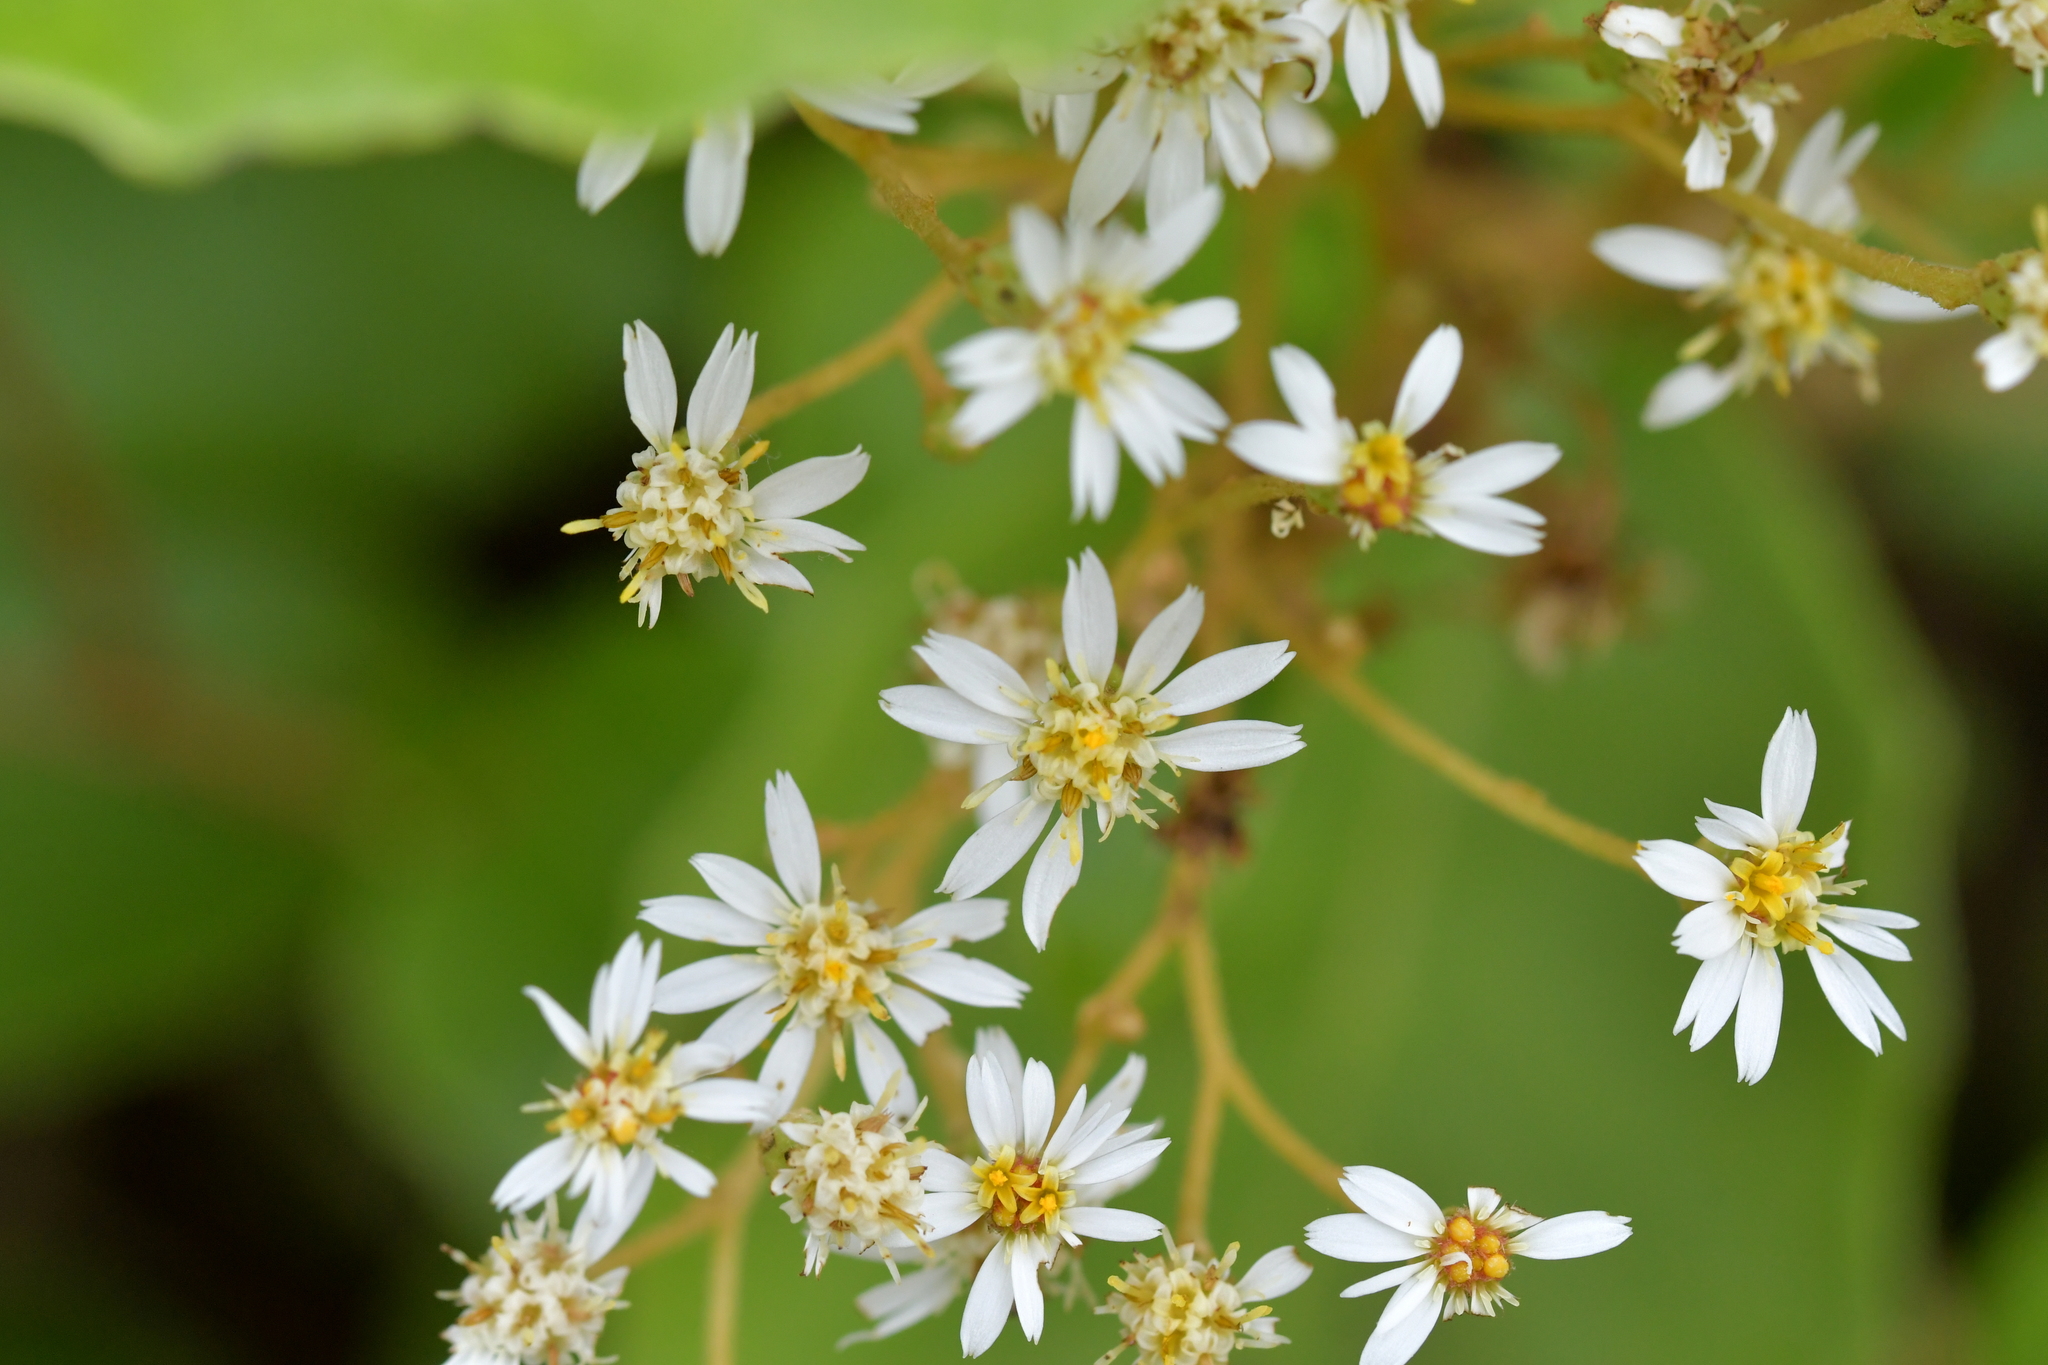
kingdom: Plantae
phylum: Tracheophyta
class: Magnoliopsida
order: Asterales
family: Asteraceae
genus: Olearia
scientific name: Olearia arborescens
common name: Glossy tree daisy
